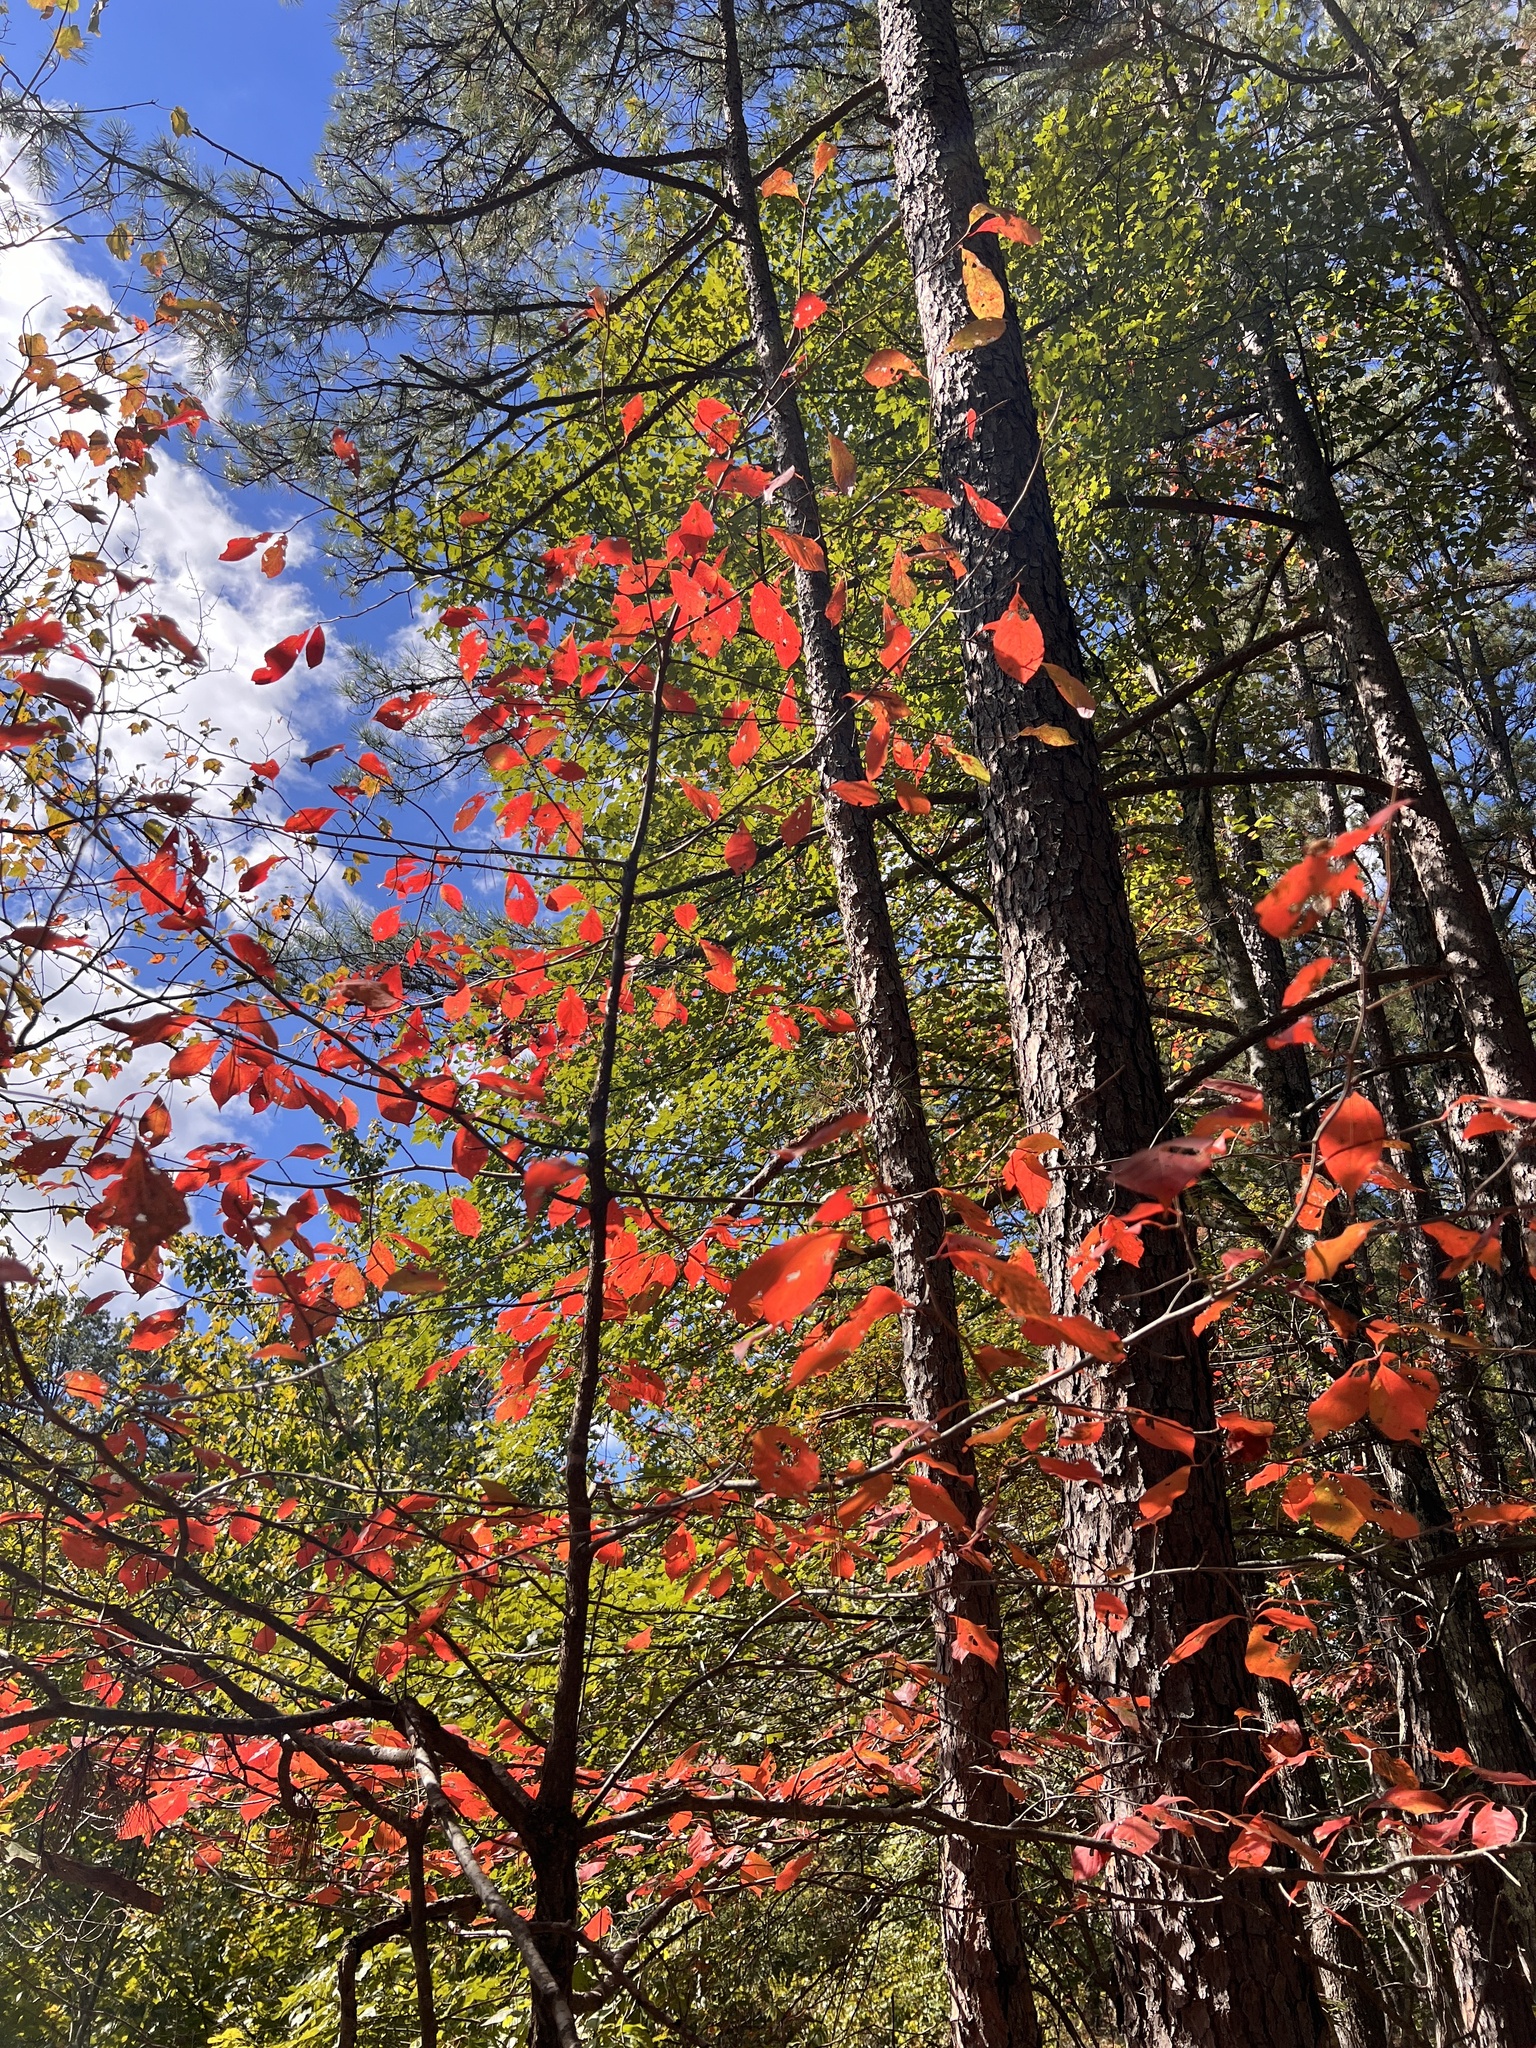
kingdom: Plantae
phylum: Tracheophyta
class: Magnoliopsida
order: Cornales
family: Nyssaceae
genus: Nyssa
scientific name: Nyssa sylvatica
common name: Black tupelo
